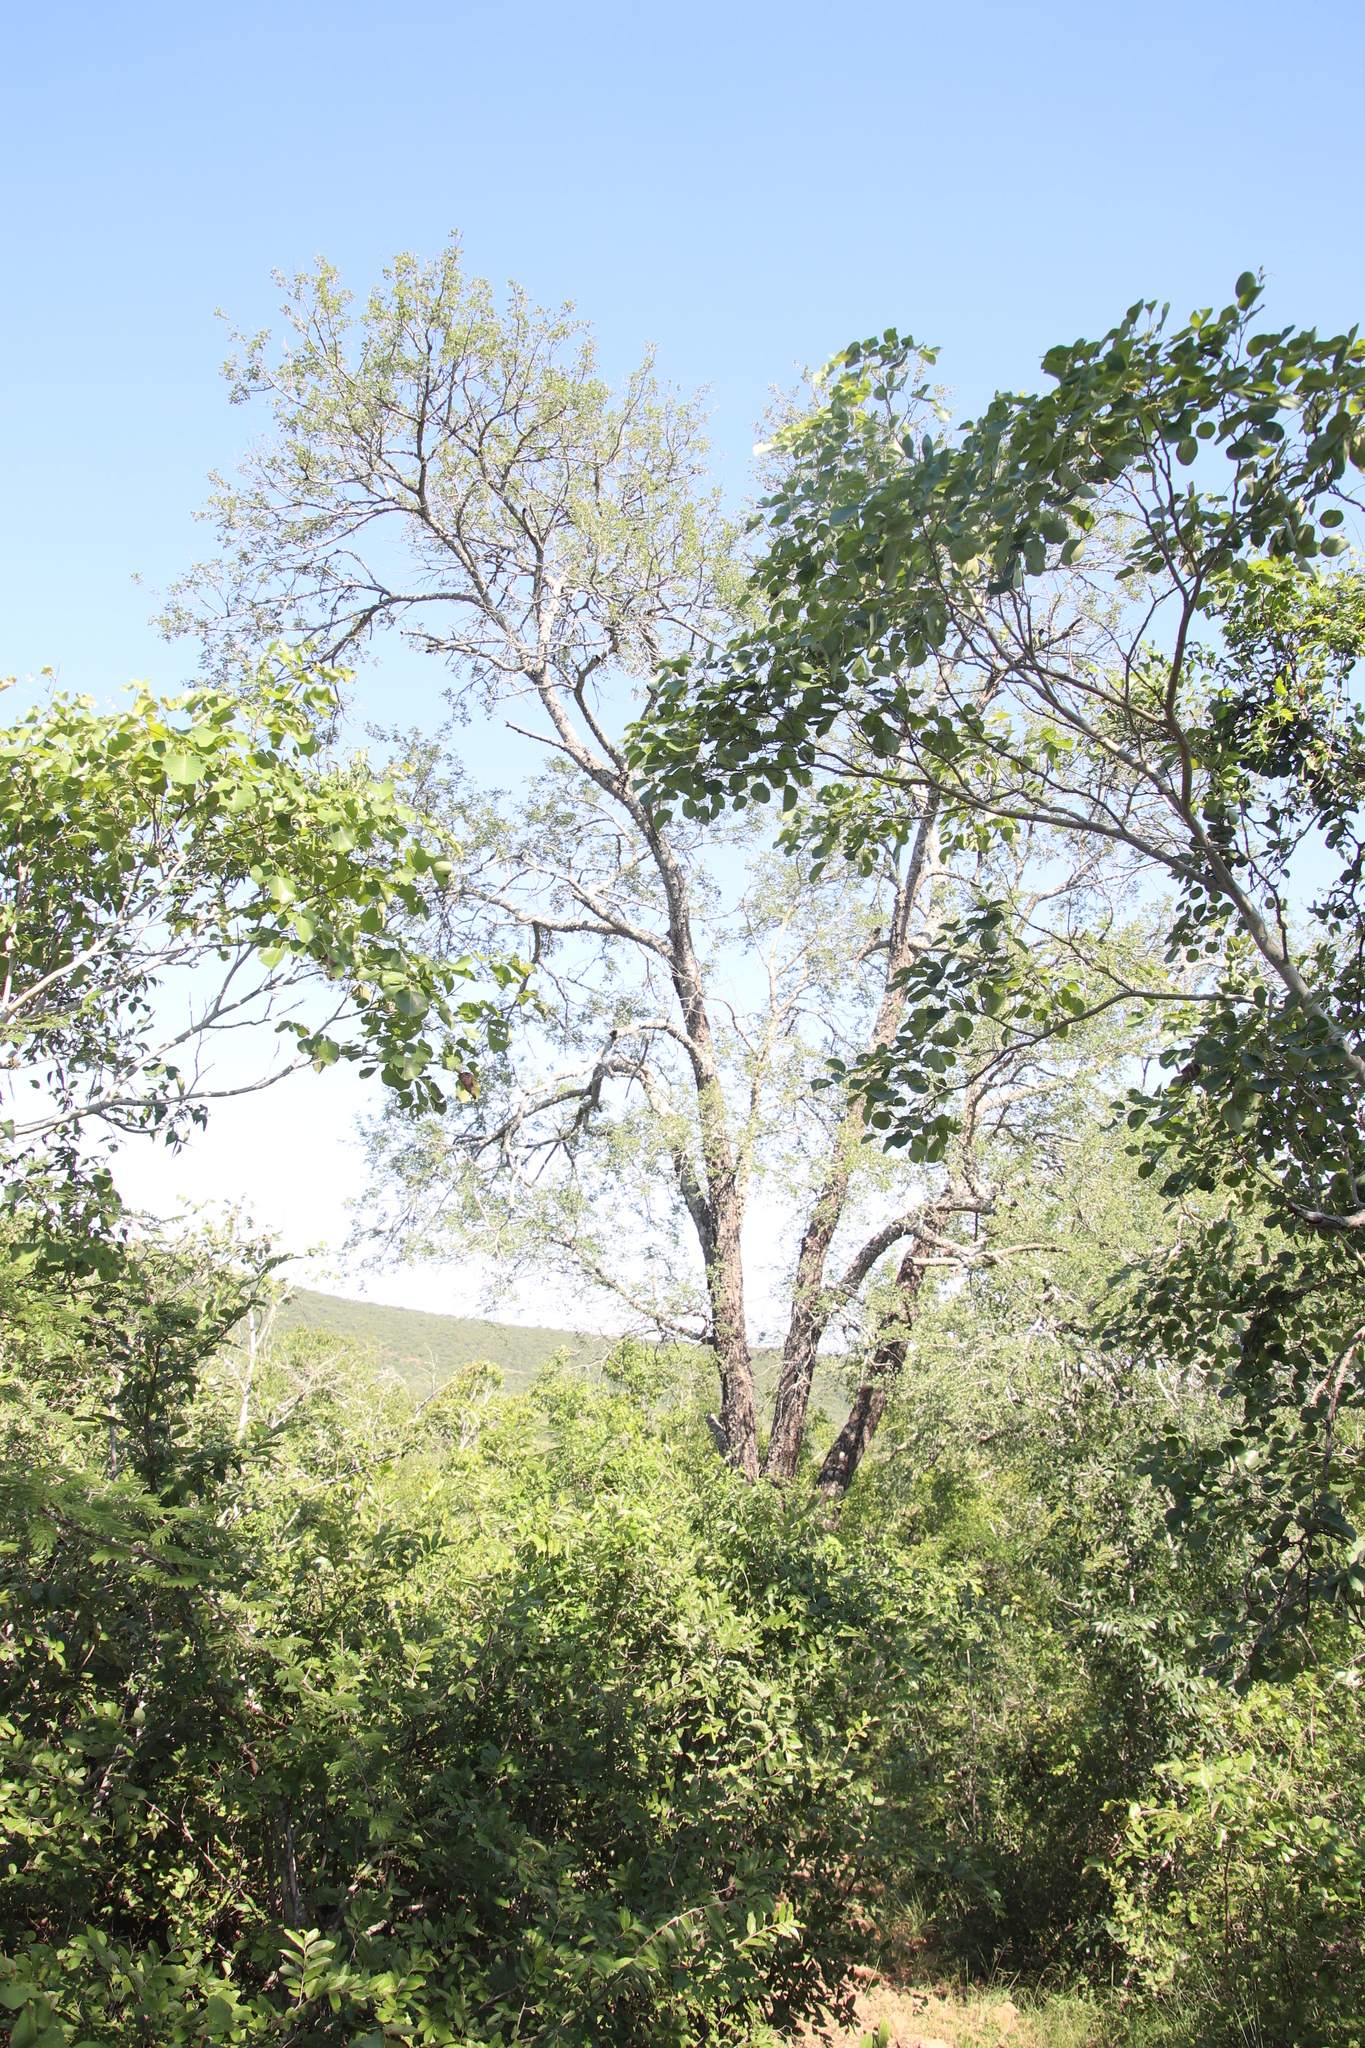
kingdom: Plantae
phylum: Tracheophyta
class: Magnoliopsida
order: Rosales
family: Rhamnaceae
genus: Ziziphus
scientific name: Ziziphus mucronata
